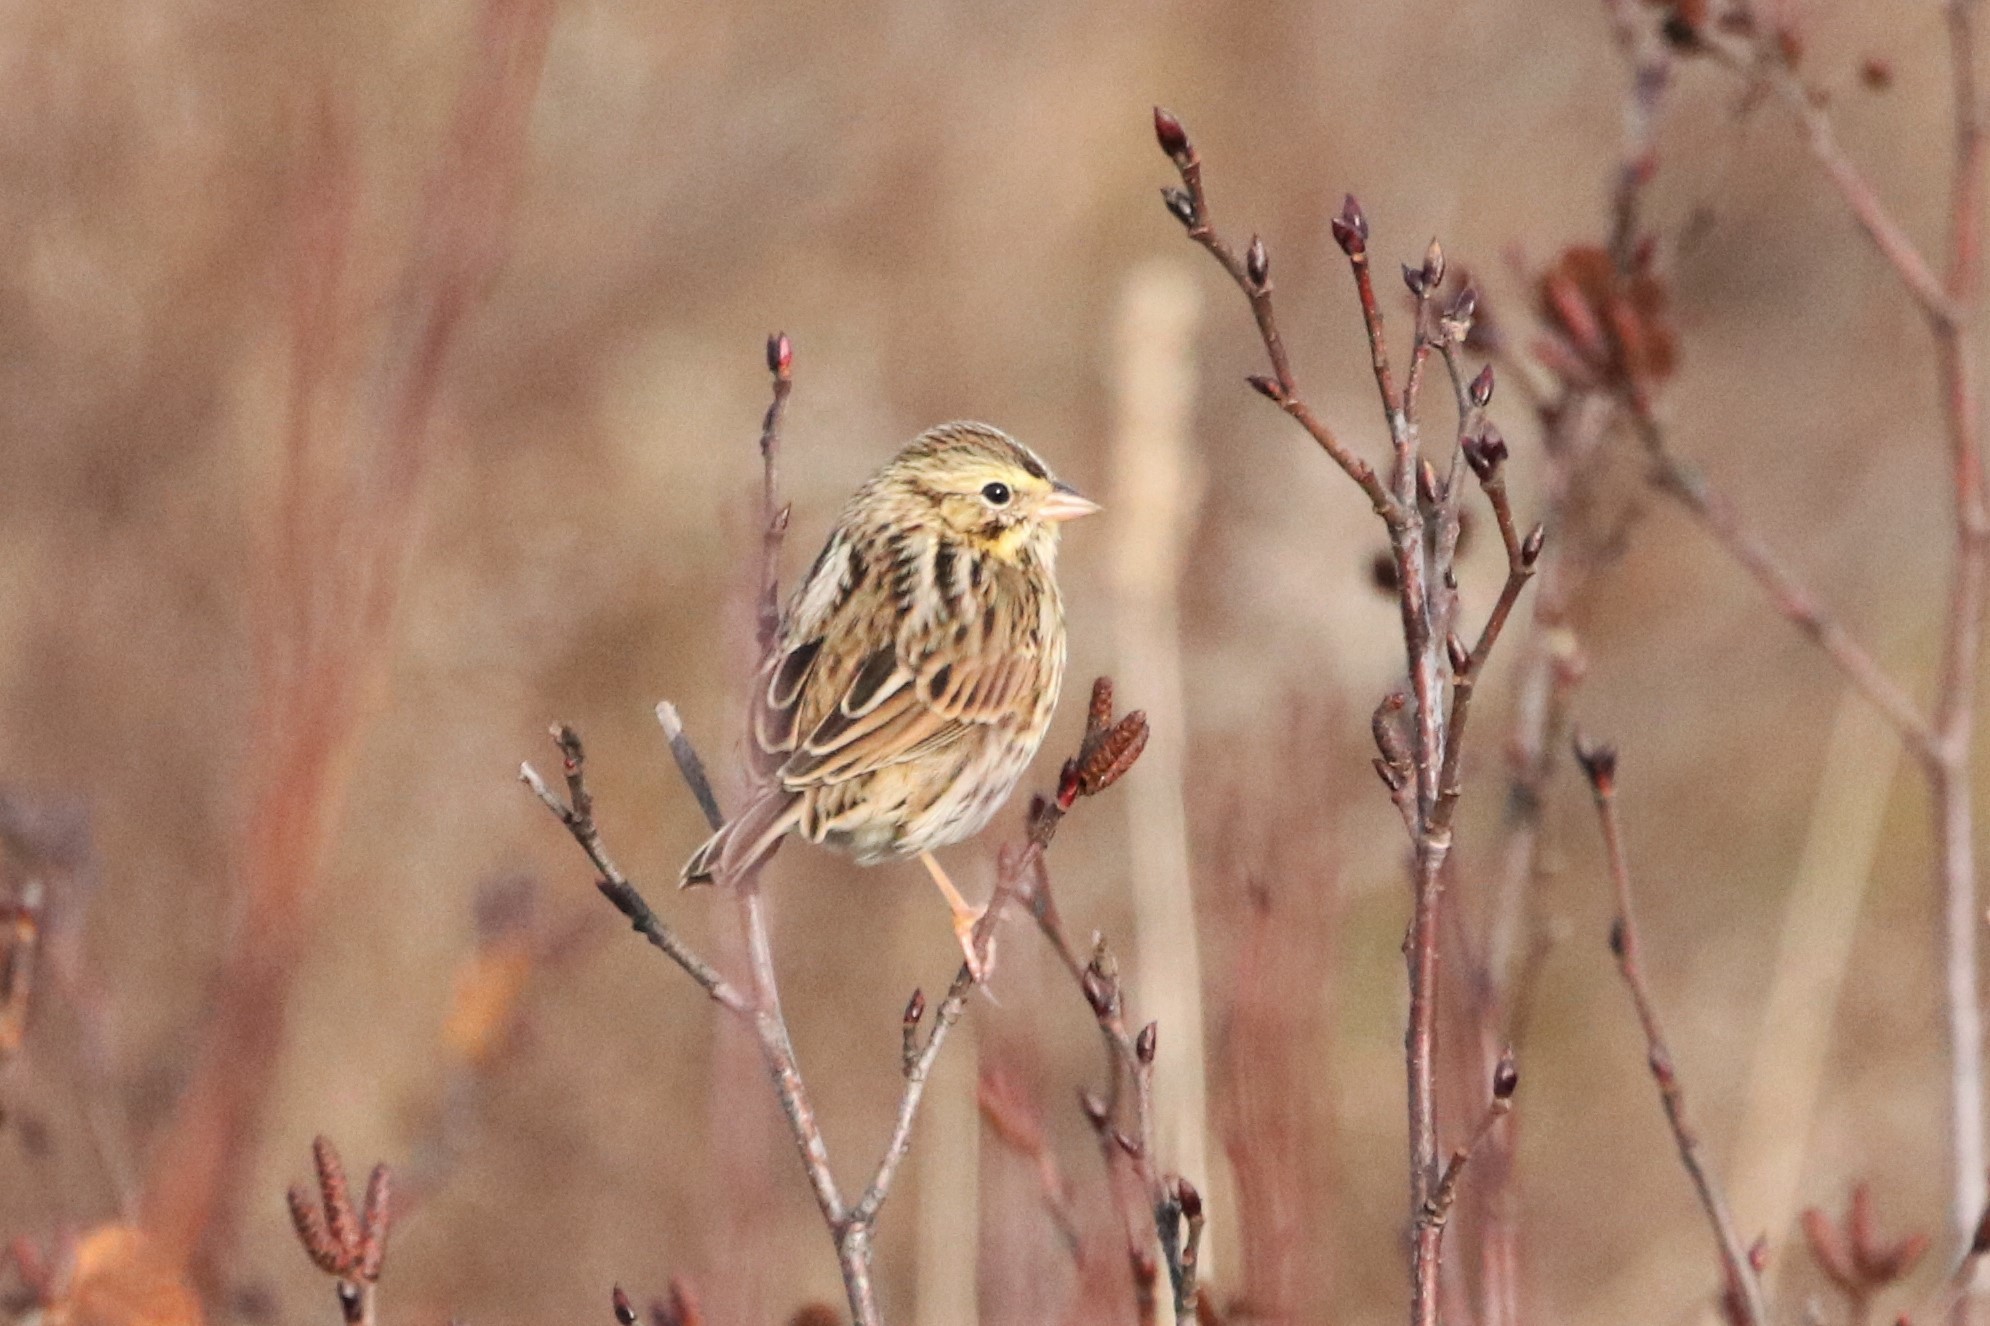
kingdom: Animalia
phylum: Chordata
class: Aves
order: Passeriformes
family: Passerellidae
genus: Passerculus
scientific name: Passerculus sandwichensis
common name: Savannah sparrow
